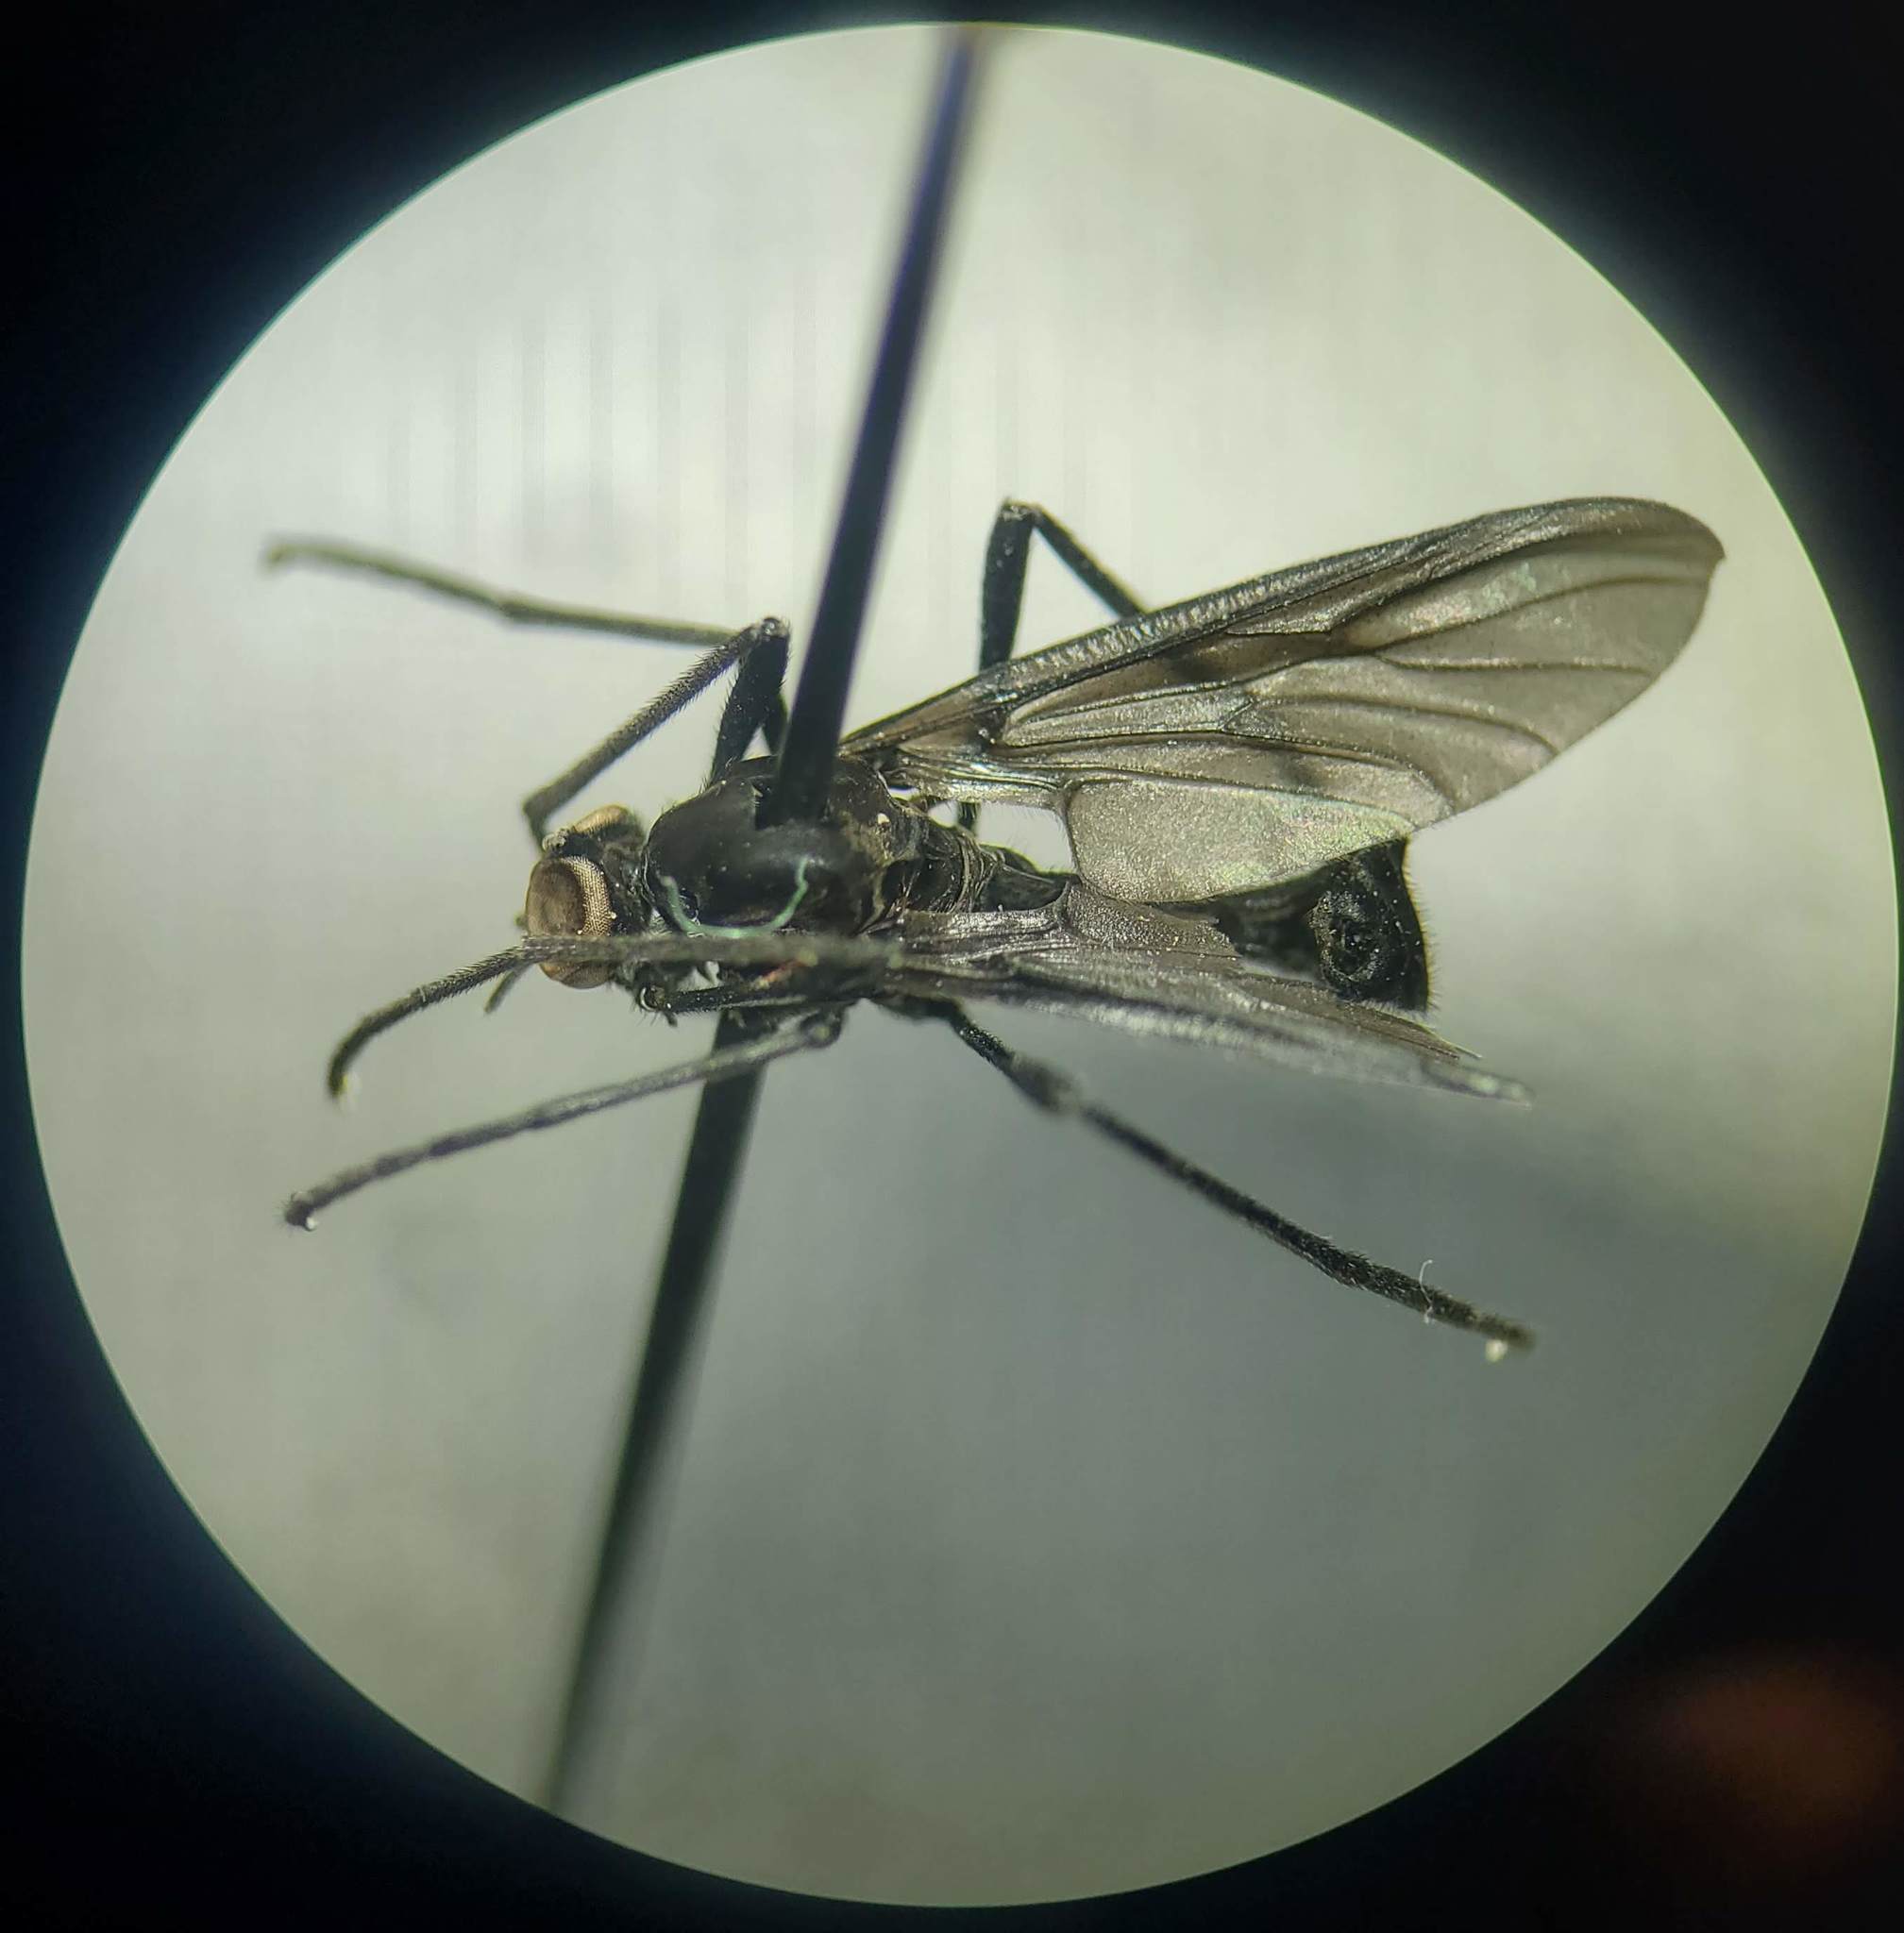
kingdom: Animalia
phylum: Arthropoda
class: Insecta
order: Diptera
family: Bibionidae
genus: Penthetria
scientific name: Penthetria heteroptera
